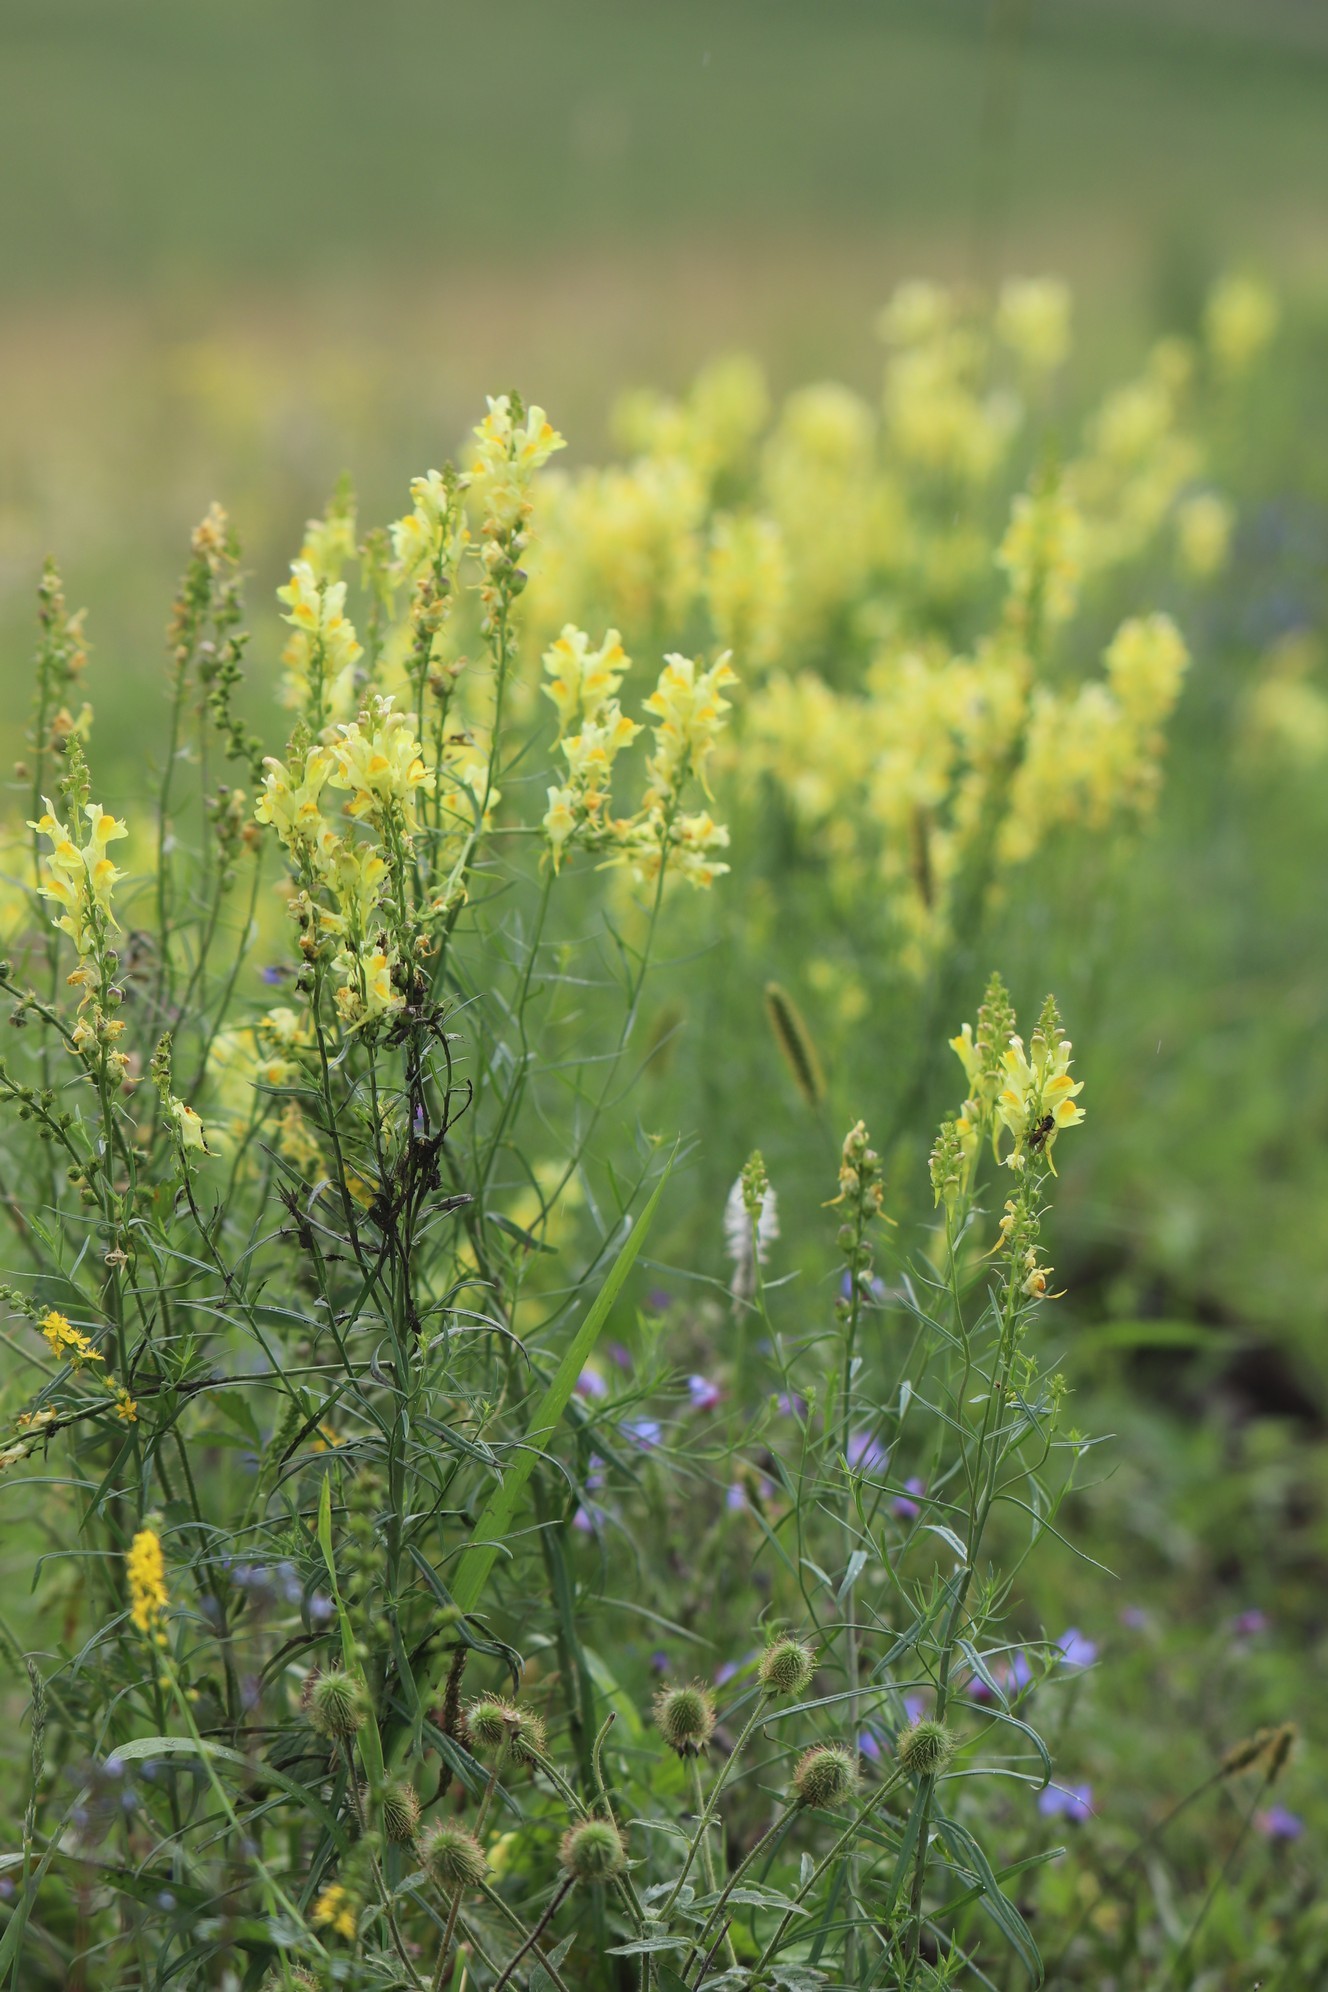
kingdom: Plantae
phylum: Tracheophyta
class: Magnoliopsida
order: Lamiales
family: Plantaginaceae
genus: Linaria
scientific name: Linaria vulgaris
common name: Butter and eggs
